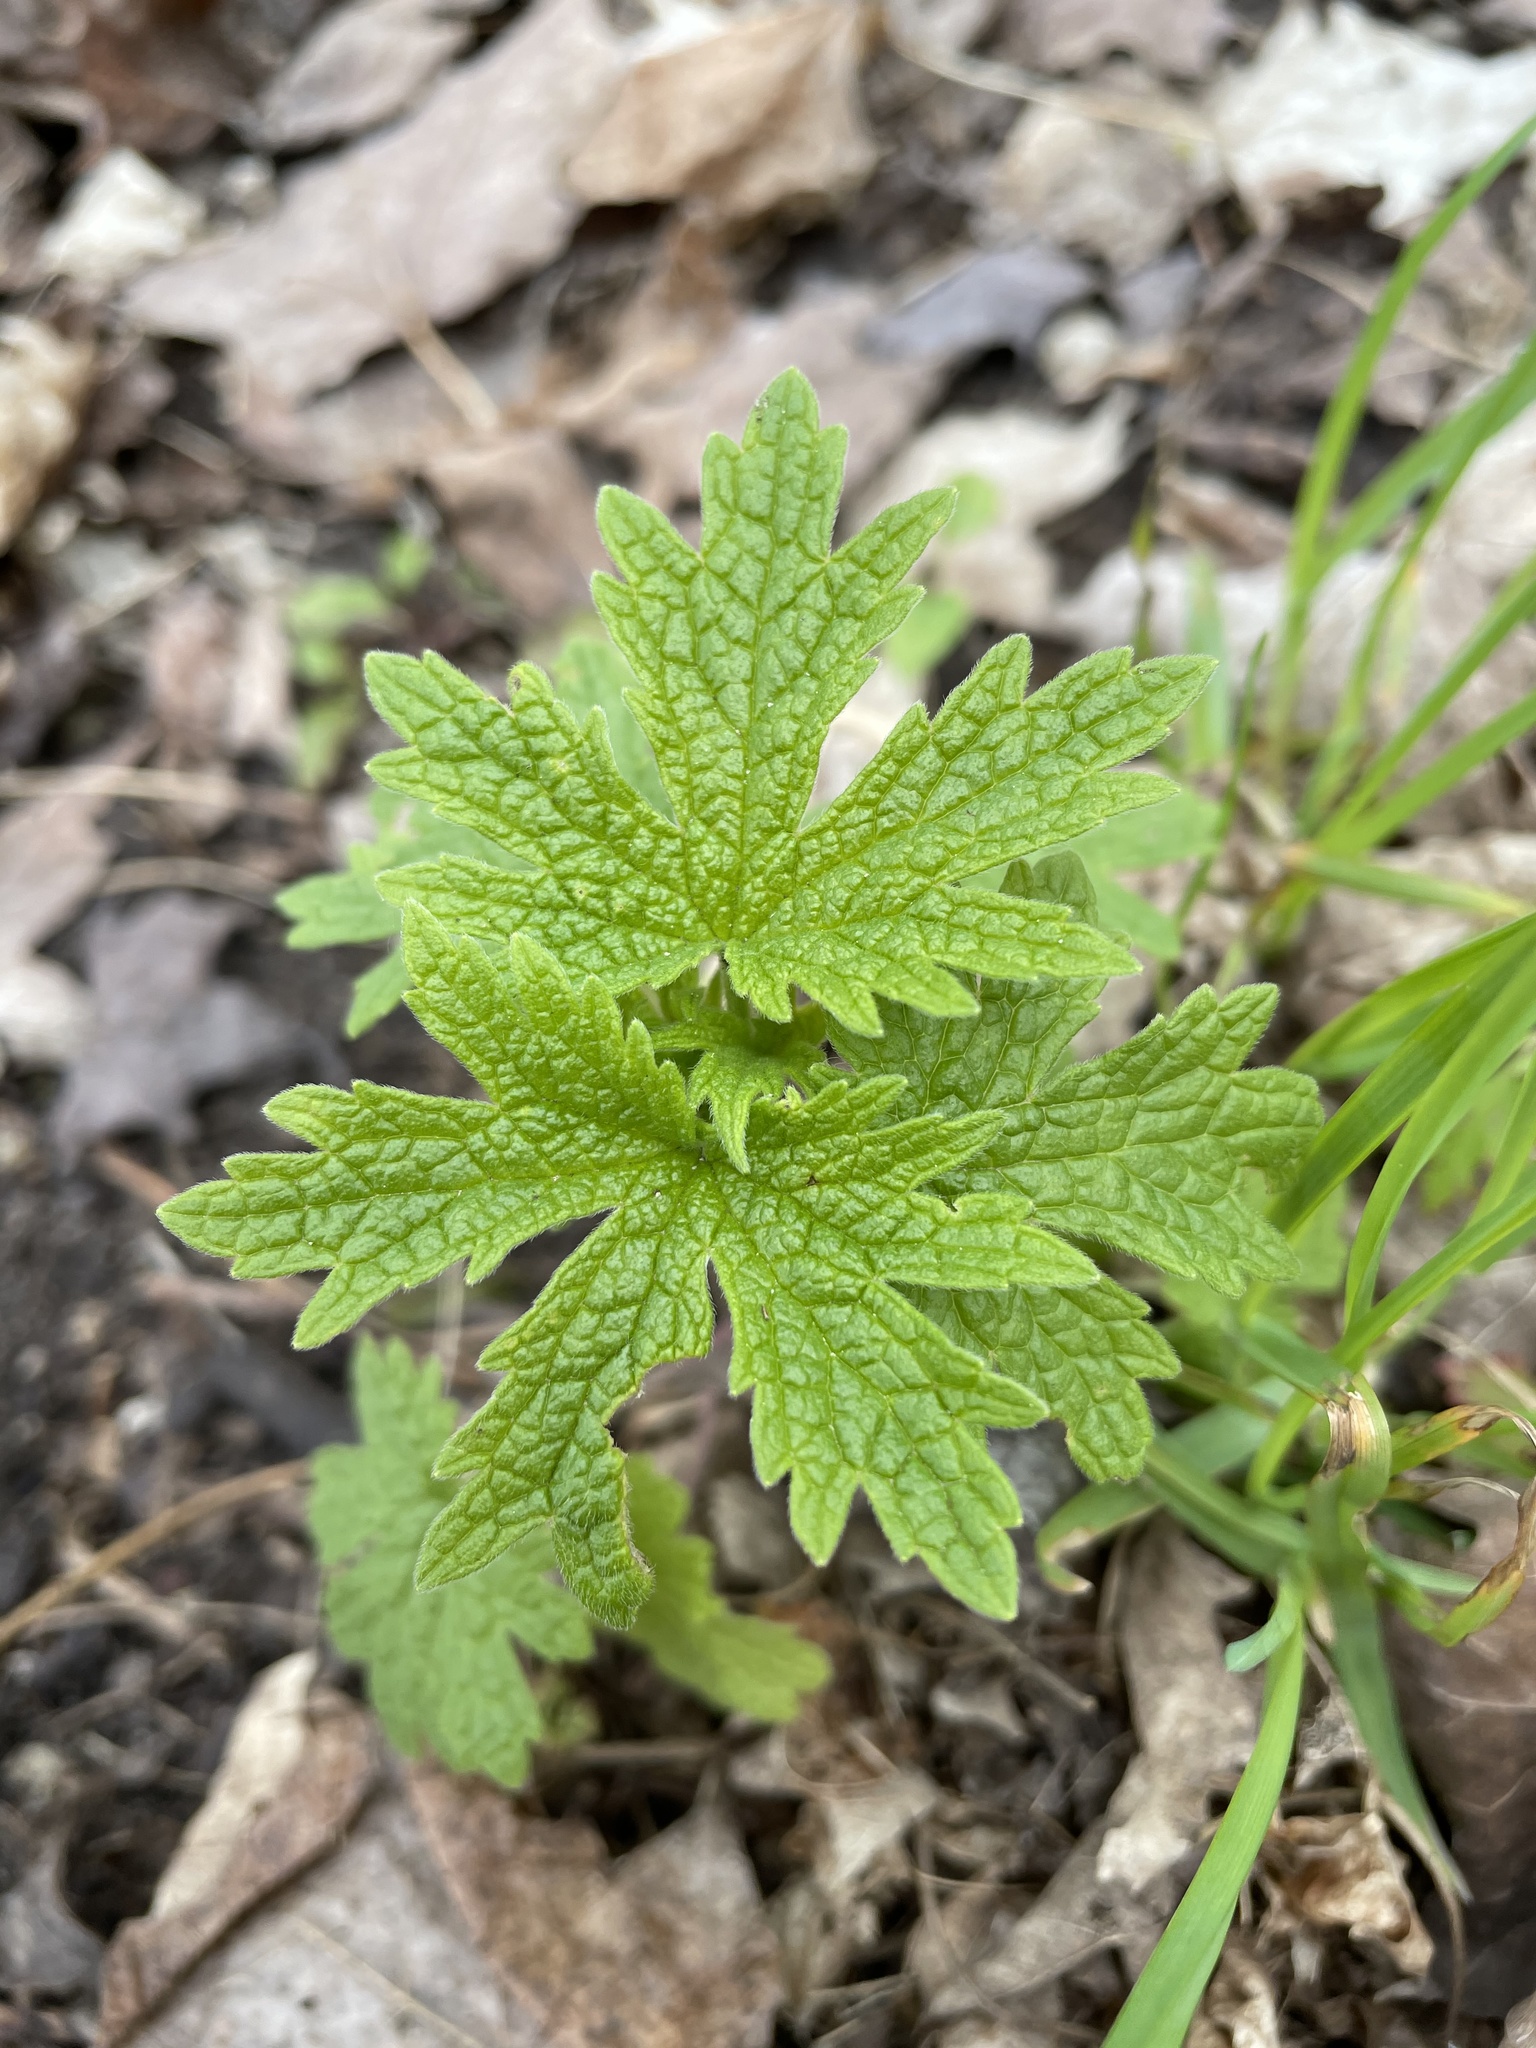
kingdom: Plantae
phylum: Tracheophyta
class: Magnoliopsida
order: Lamiales
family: Lamiaceae
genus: Leonurus
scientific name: Leonurus cardiaca
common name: Motherwort
